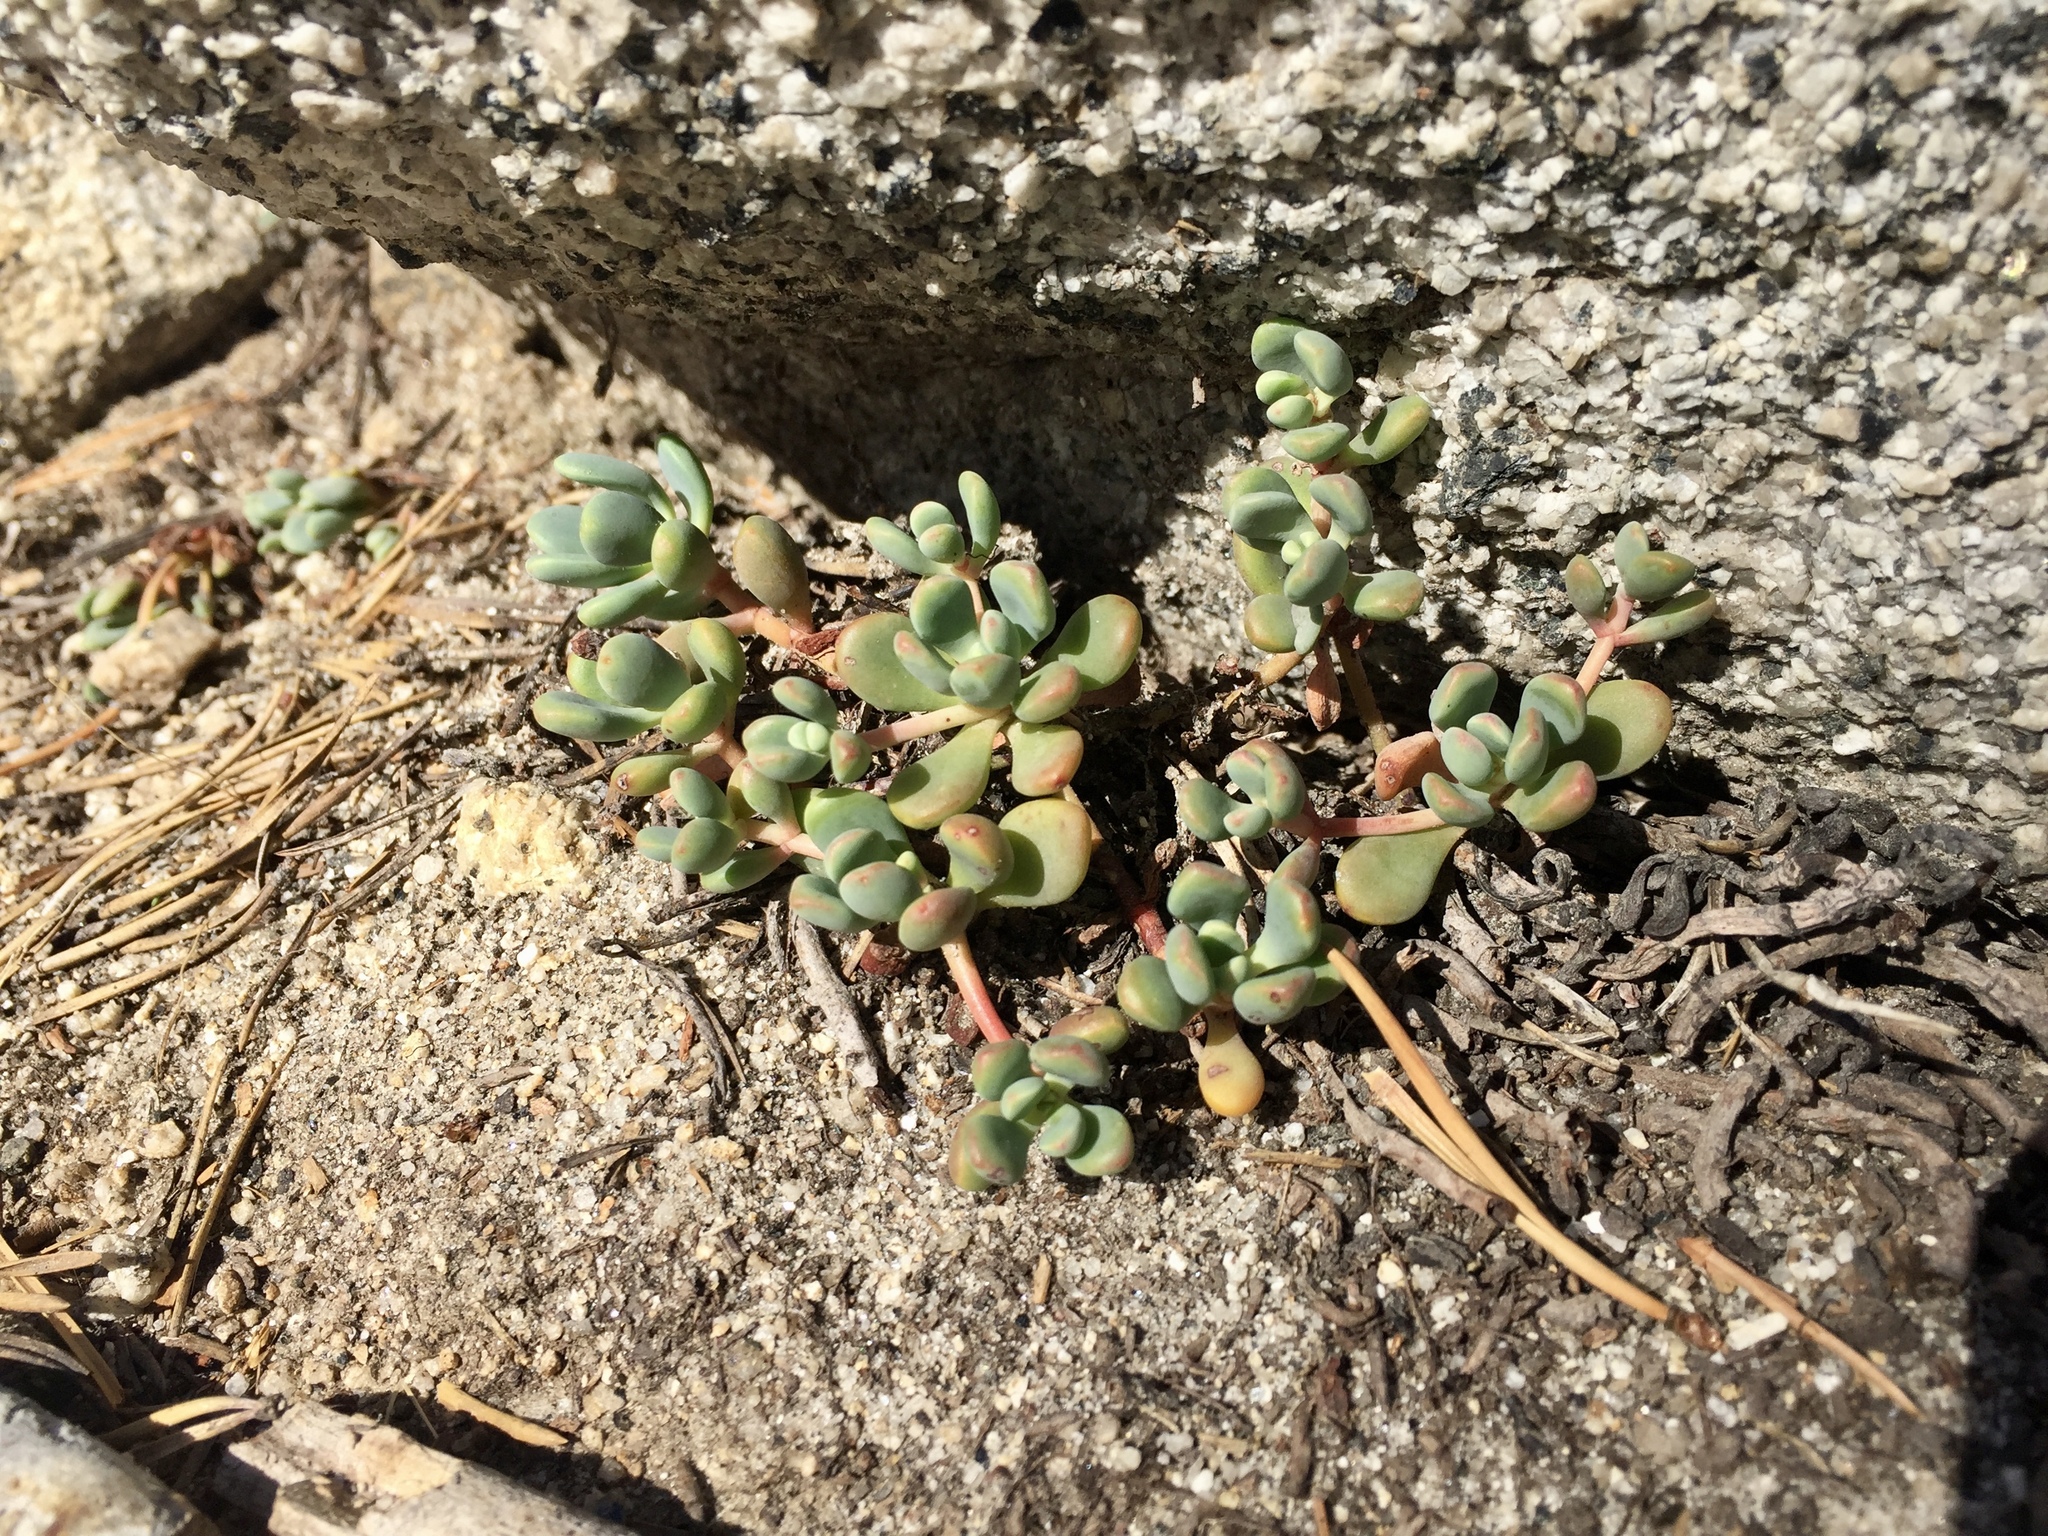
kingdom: Plantae
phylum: Tracheophyta
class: Magnoliopsida
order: Saxifragales
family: Crassulaceae
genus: Sedum
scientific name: Sedum obtusatum
